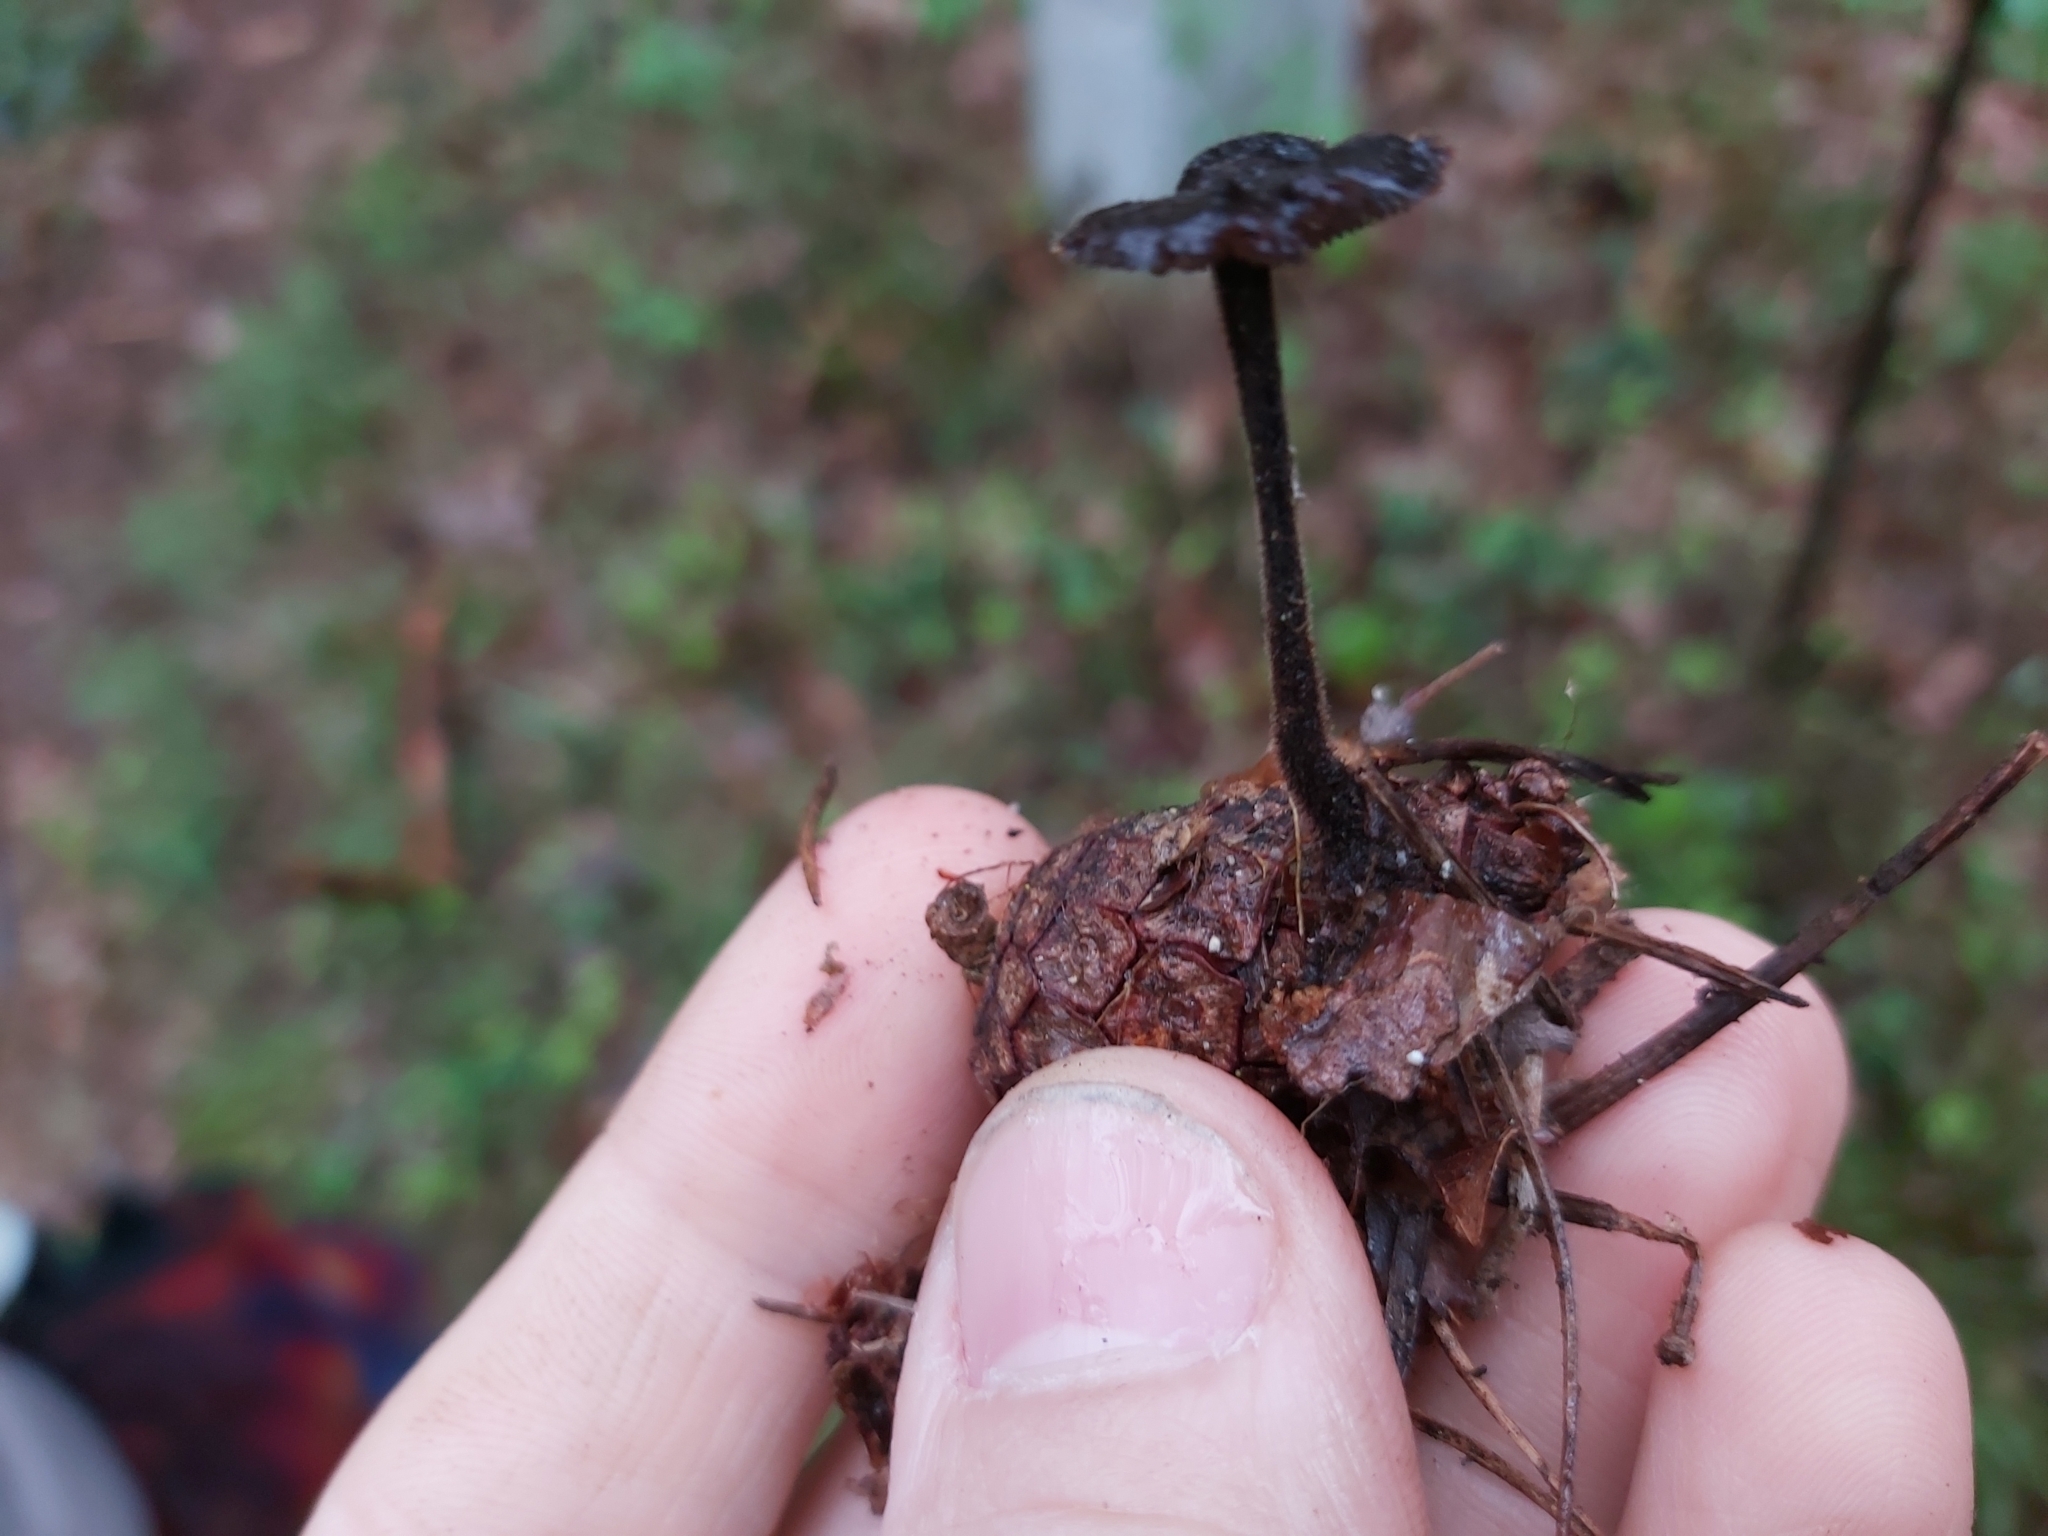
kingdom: Fungi
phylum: Basidiomycota
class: Agaricomycetes
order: Russulales
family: Auriscalpiaceae
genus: Auriscalpium
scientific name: Auriscalpium vulgare
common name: Earpick fungus
